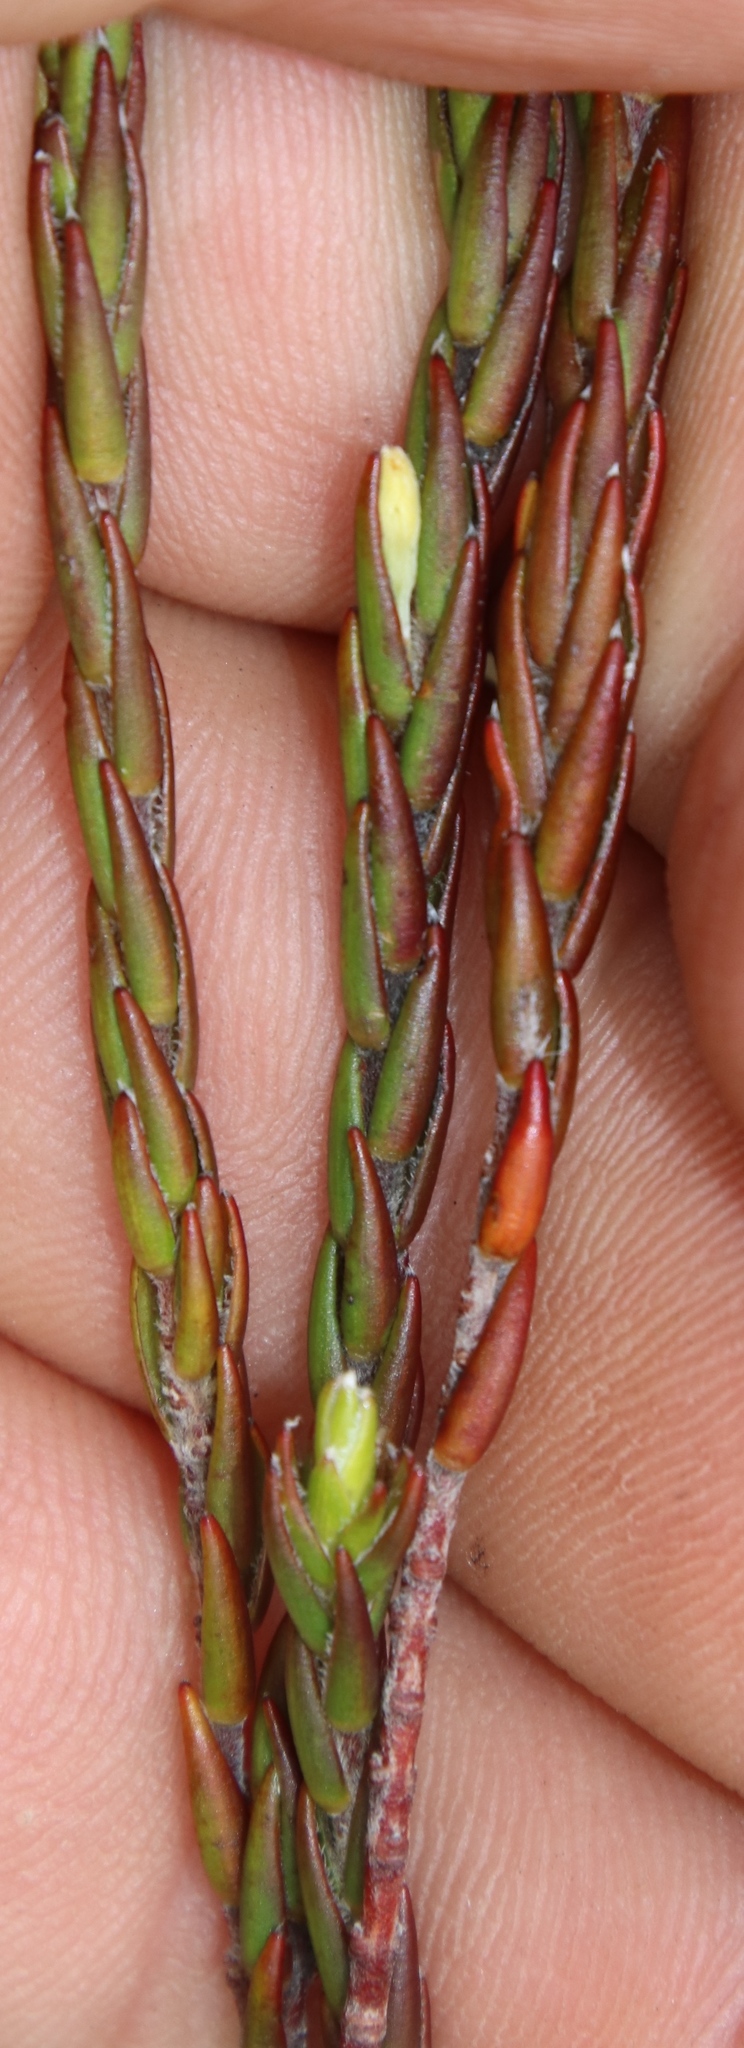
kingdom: Plantae
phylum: Tracheophyta
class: Magnoliopsida
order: Malvales
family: Thymelaeaceae
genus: Struthiola
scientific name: Struthiola ciliata
